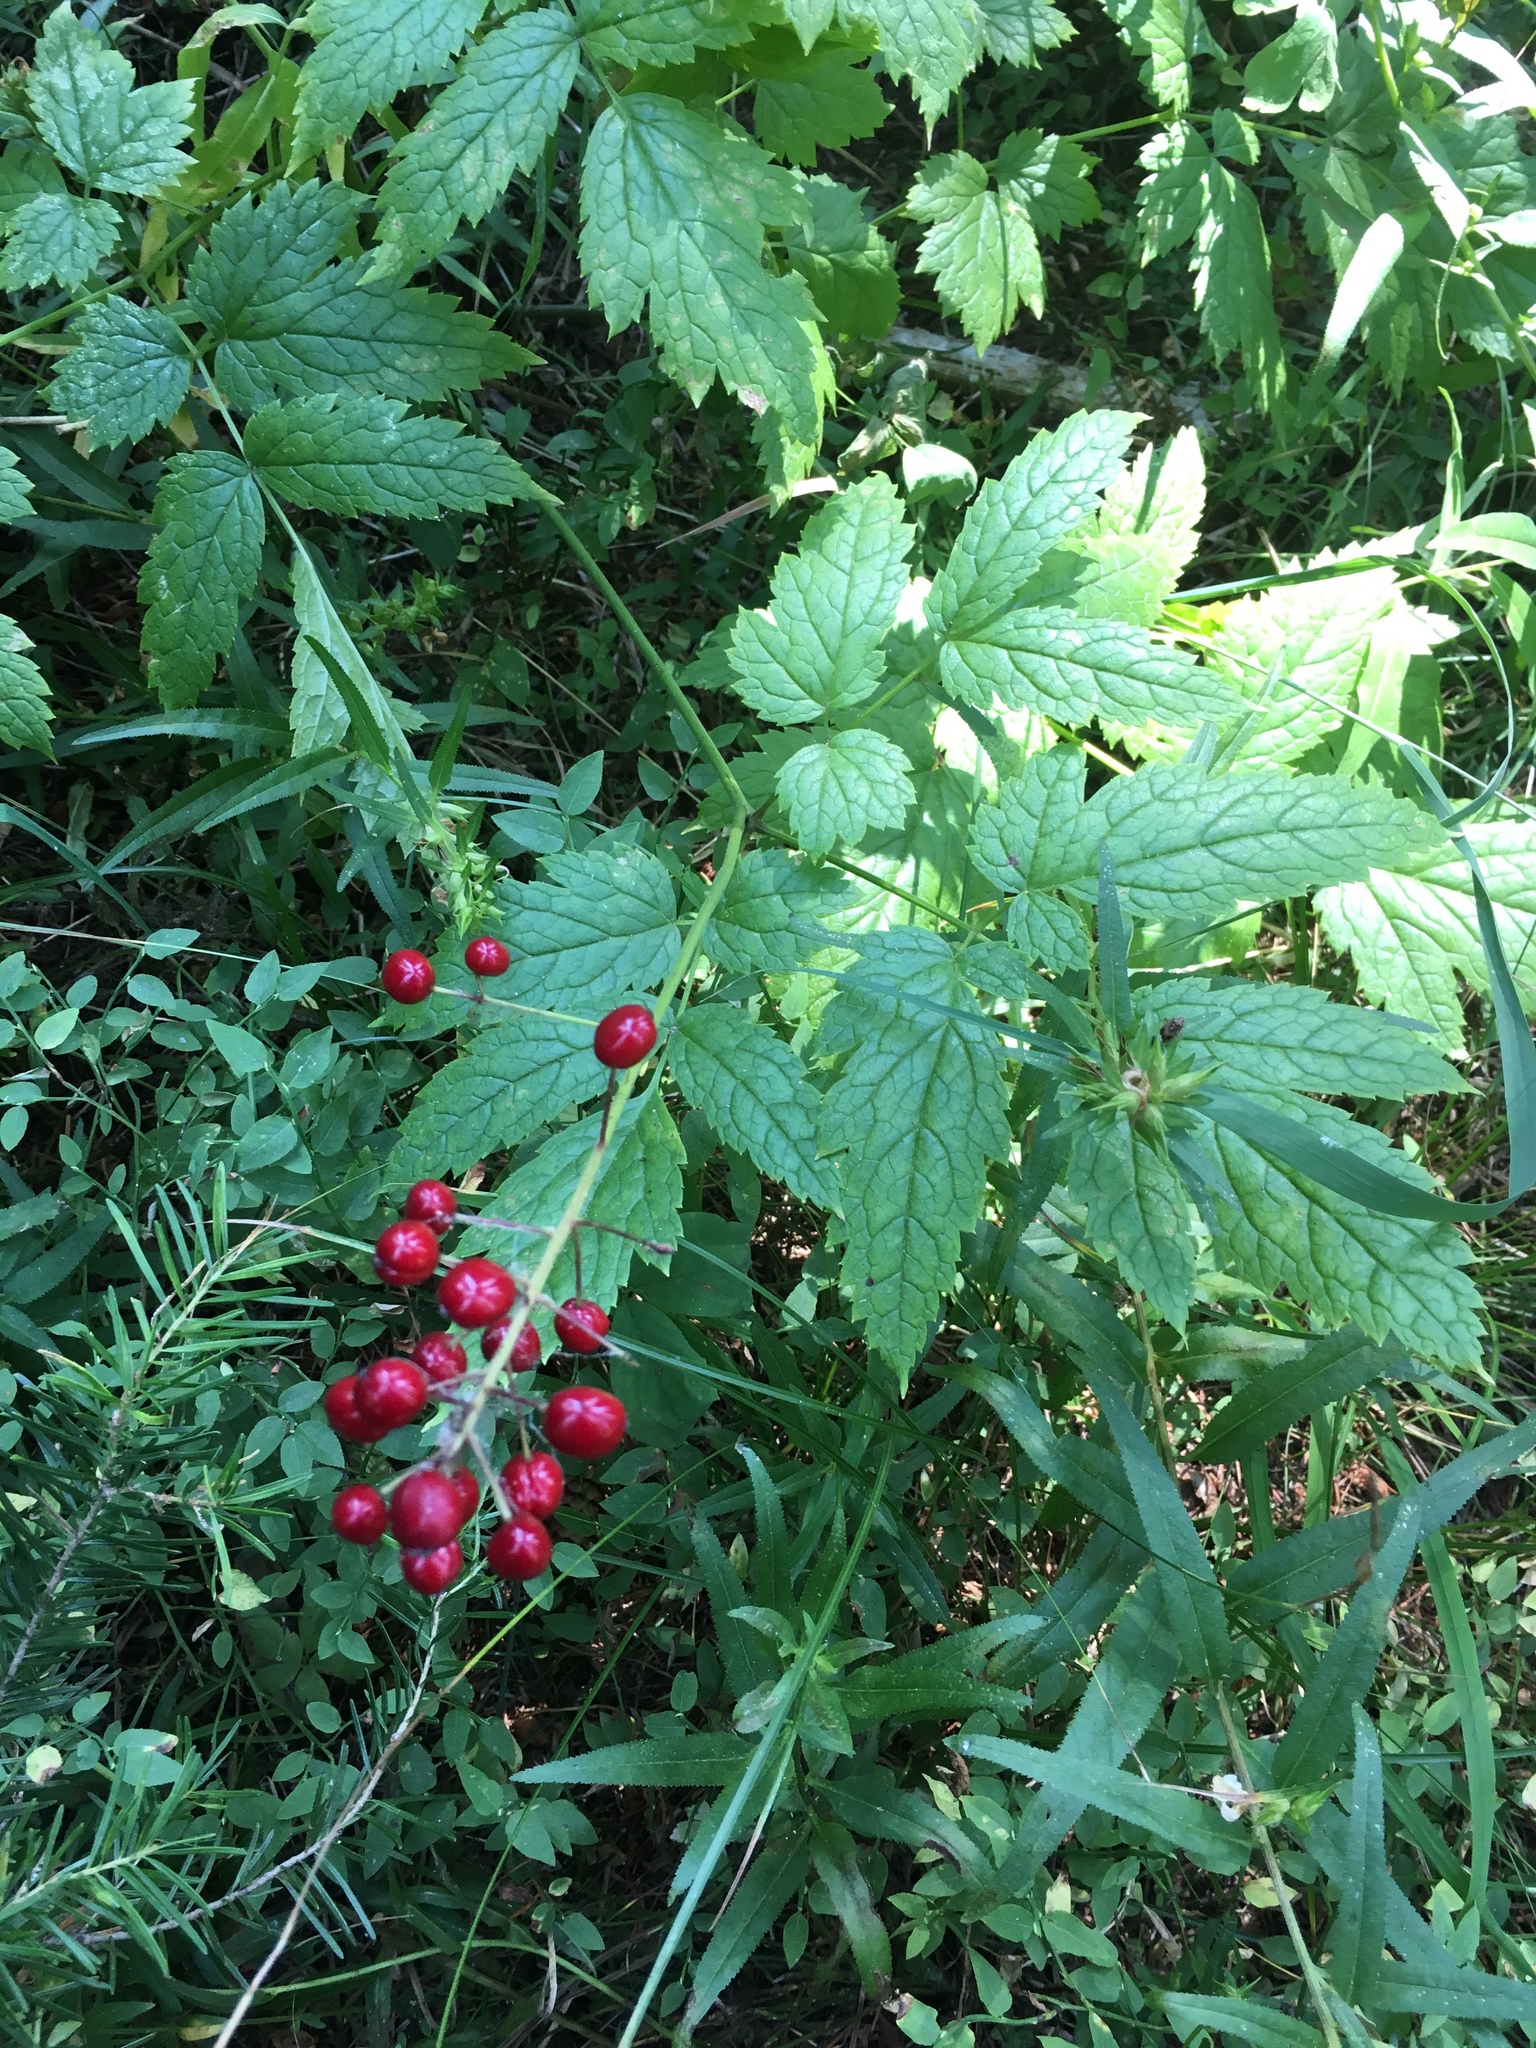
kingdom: Plantae
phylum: Tracheophyta
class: Magnoliopsida
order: Ranunculales
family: Ranunculaceae
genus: Actaea
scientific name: Actaea rubra
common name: Red baneberry
